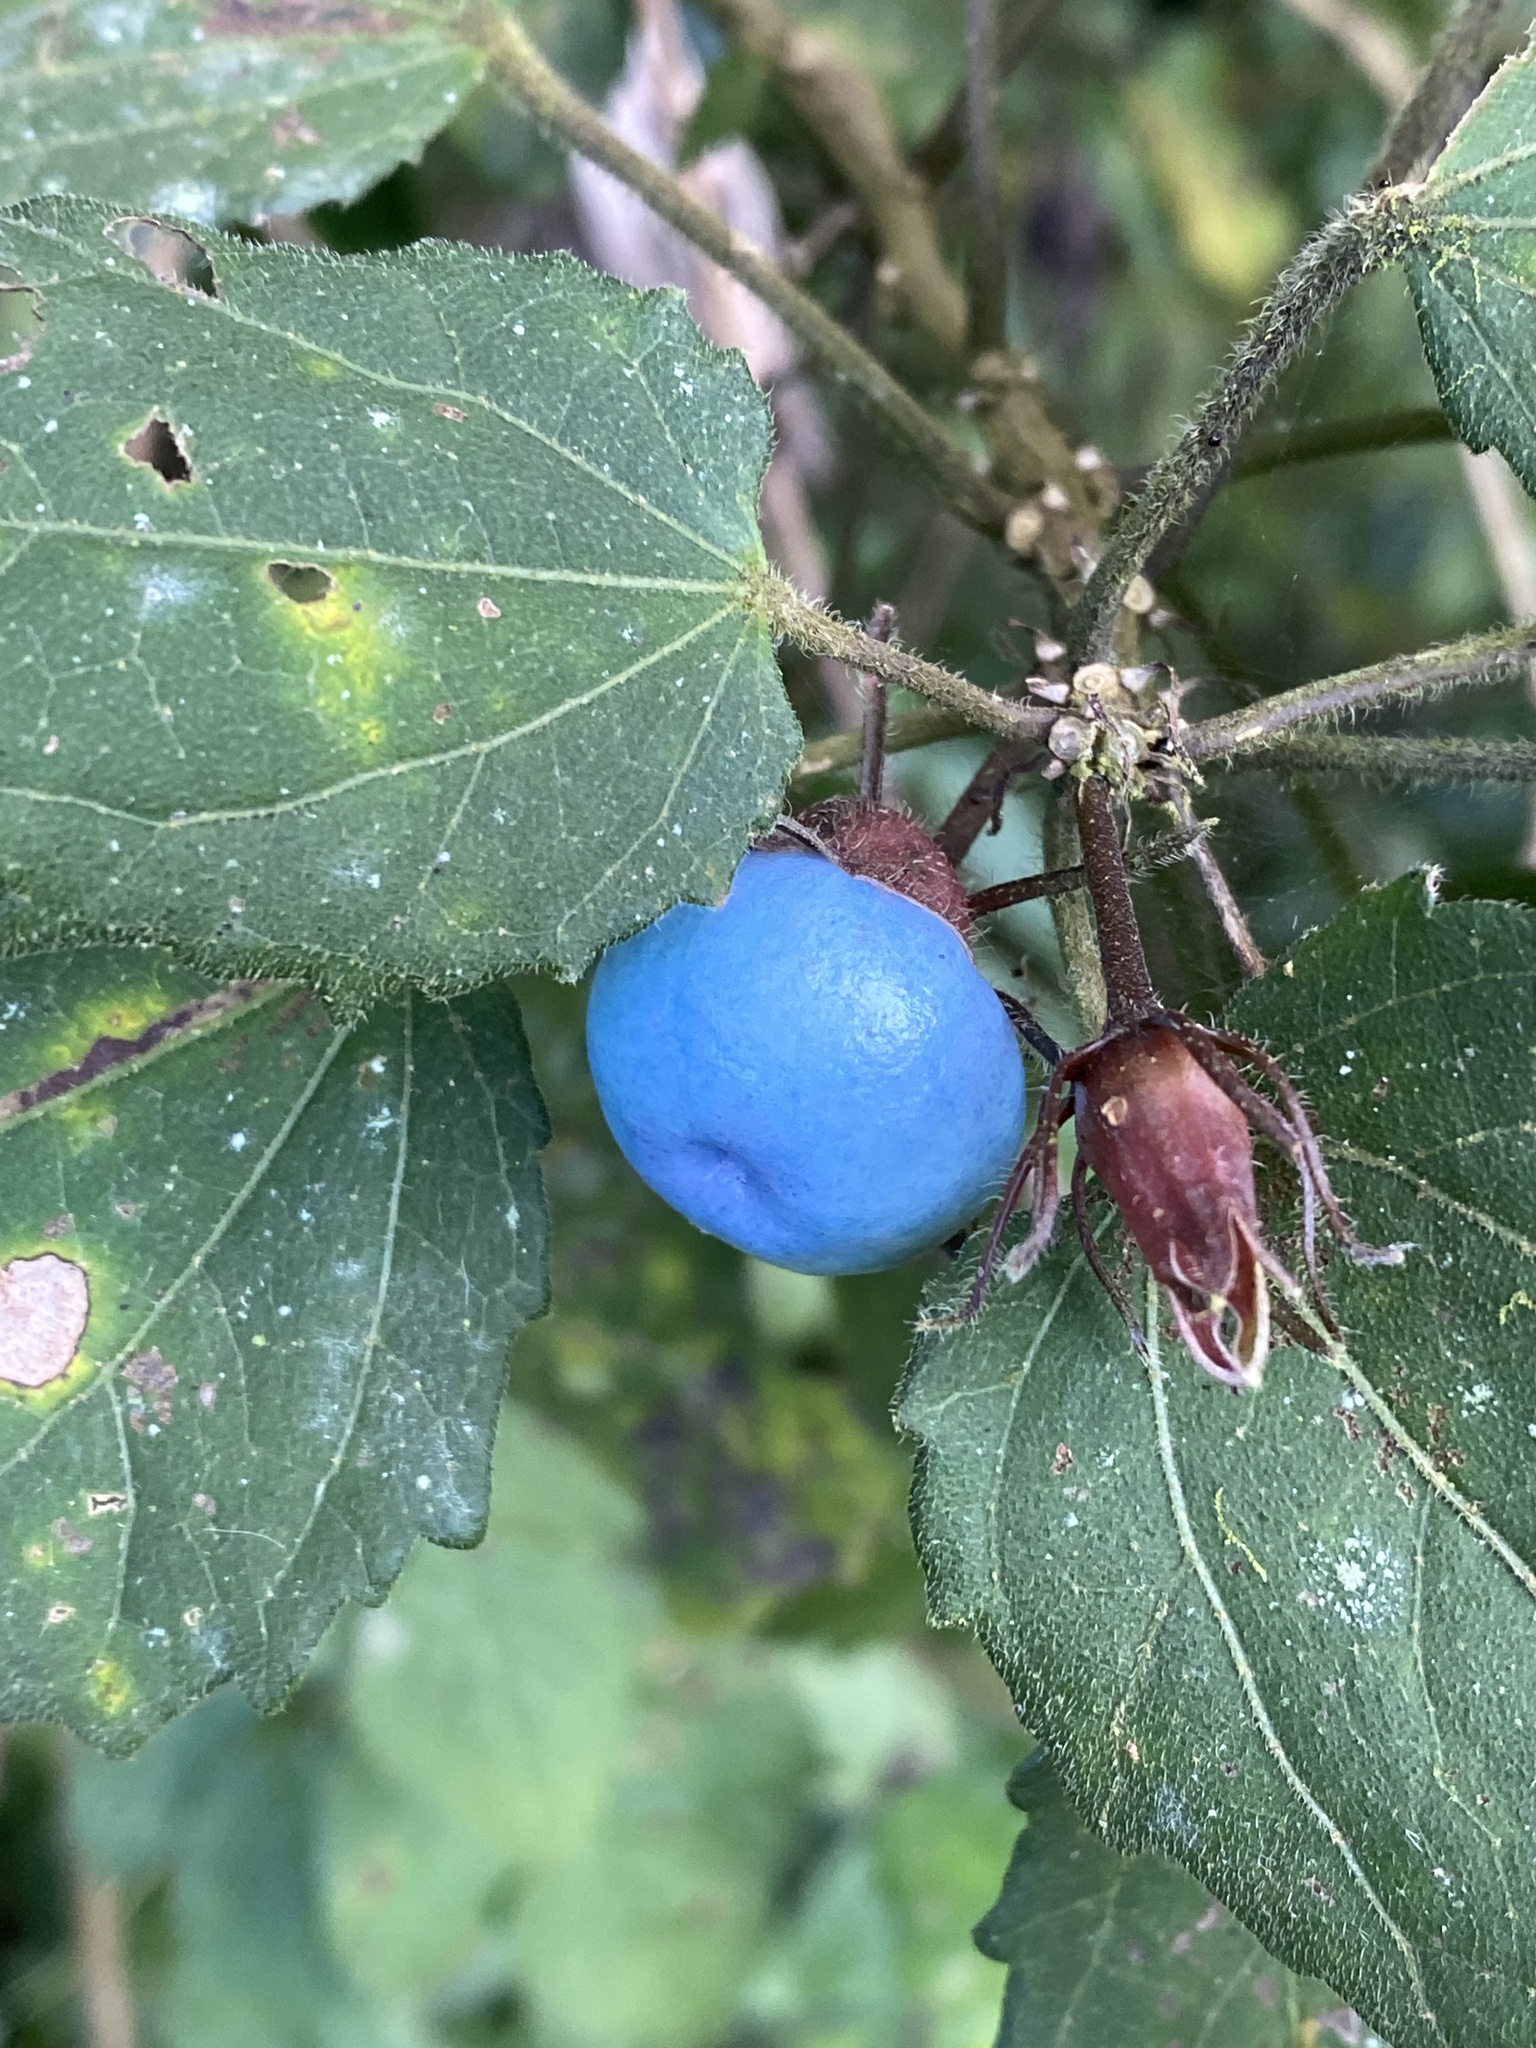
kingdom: Plantae
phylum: Tracheophyta
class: Magnoliopsida
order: Malvales
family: Malvaceae
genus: Malvaviscus
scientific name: Malvaviscus arboreus
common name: Wax mallow
